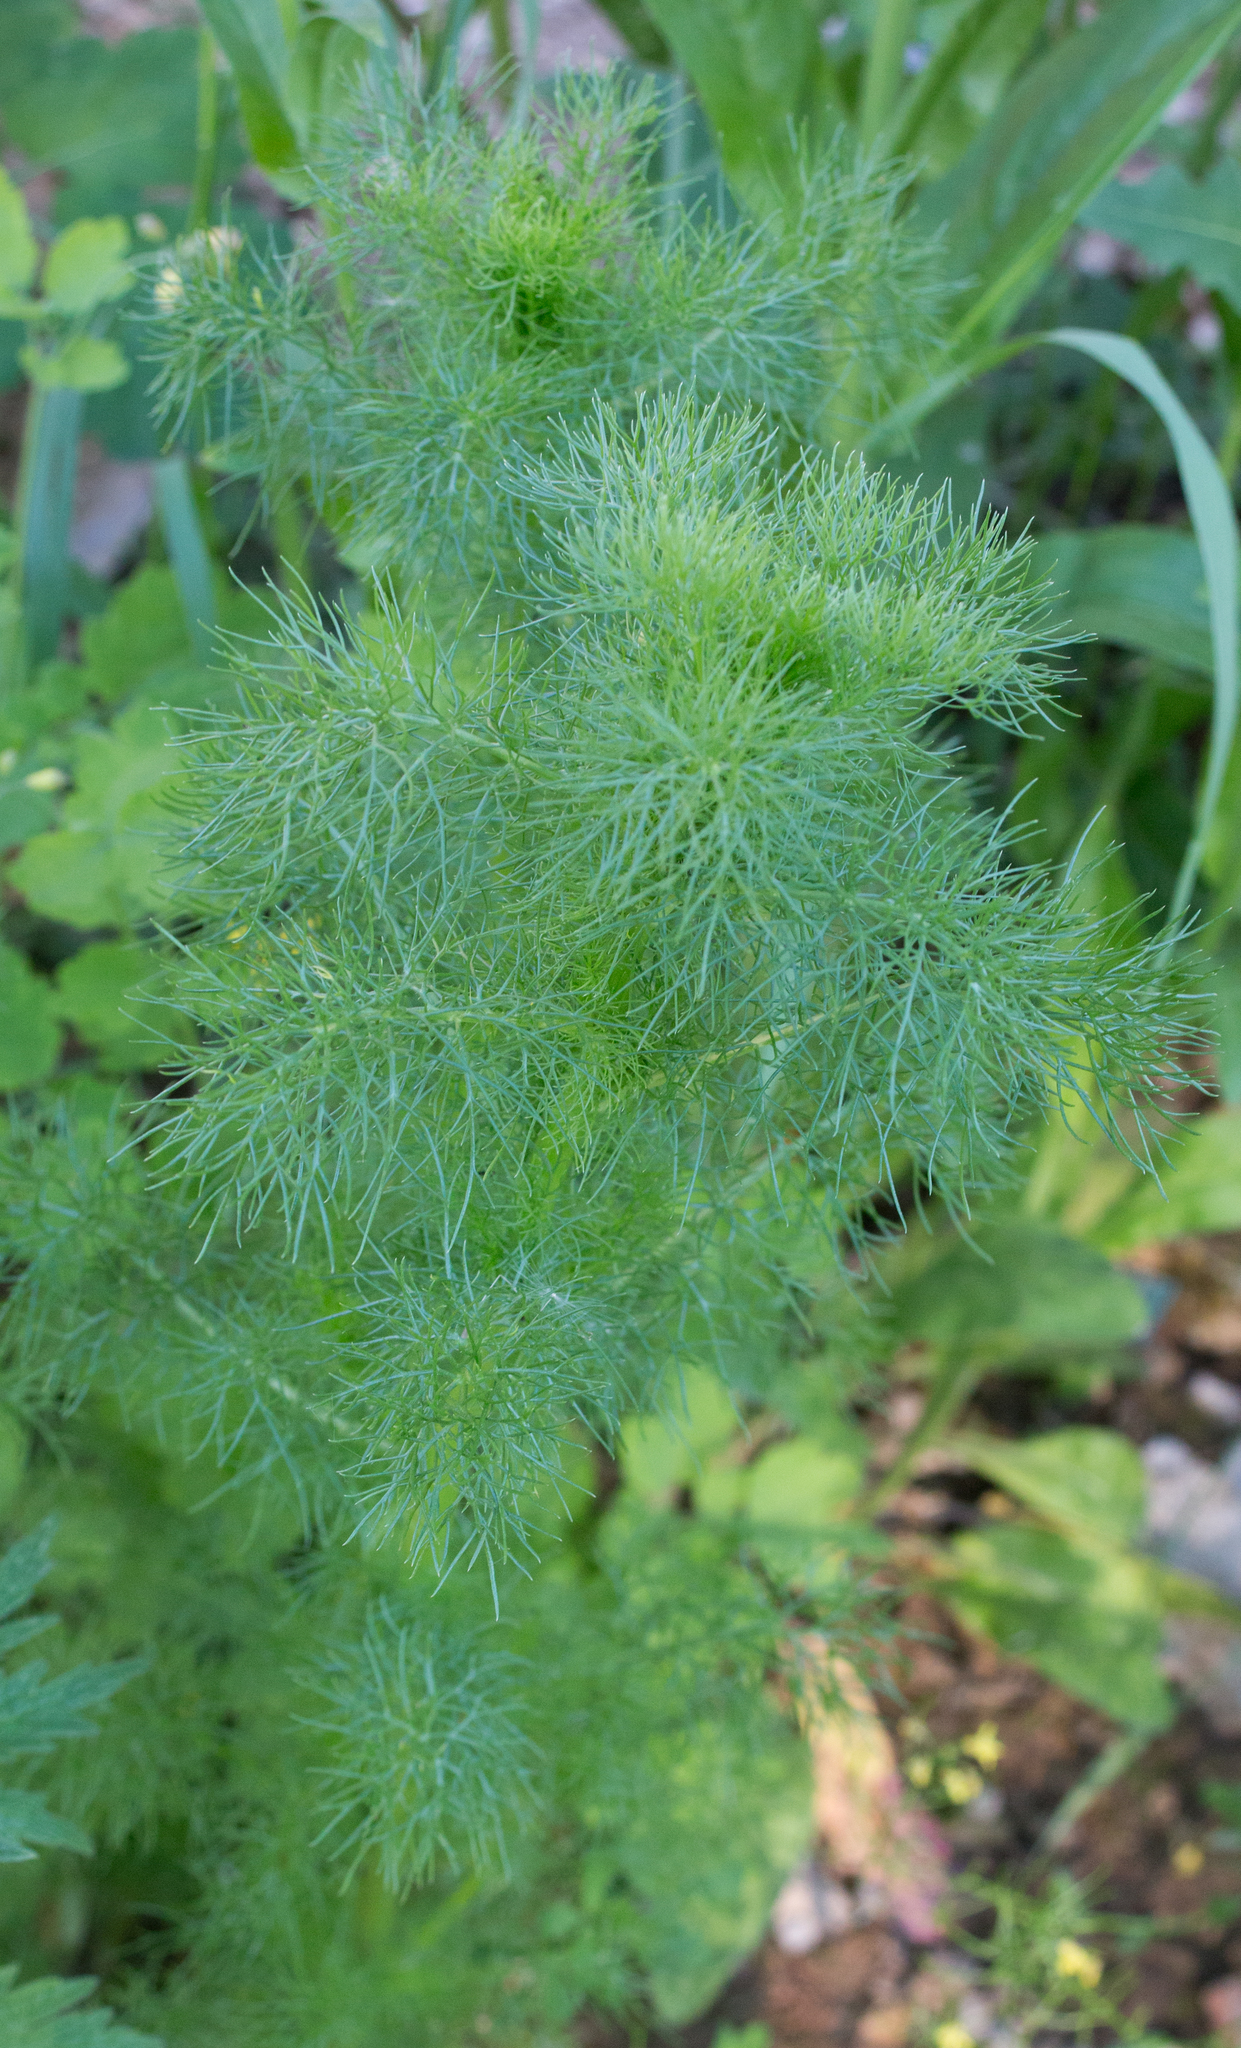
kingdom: Plantae
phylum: Tracheophyta
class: Magnoliopsida
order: Asterales
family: Asteraceae
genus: Tripleurospermum
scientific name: Tripleurospermum inodorum
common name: Scentless mayweed
